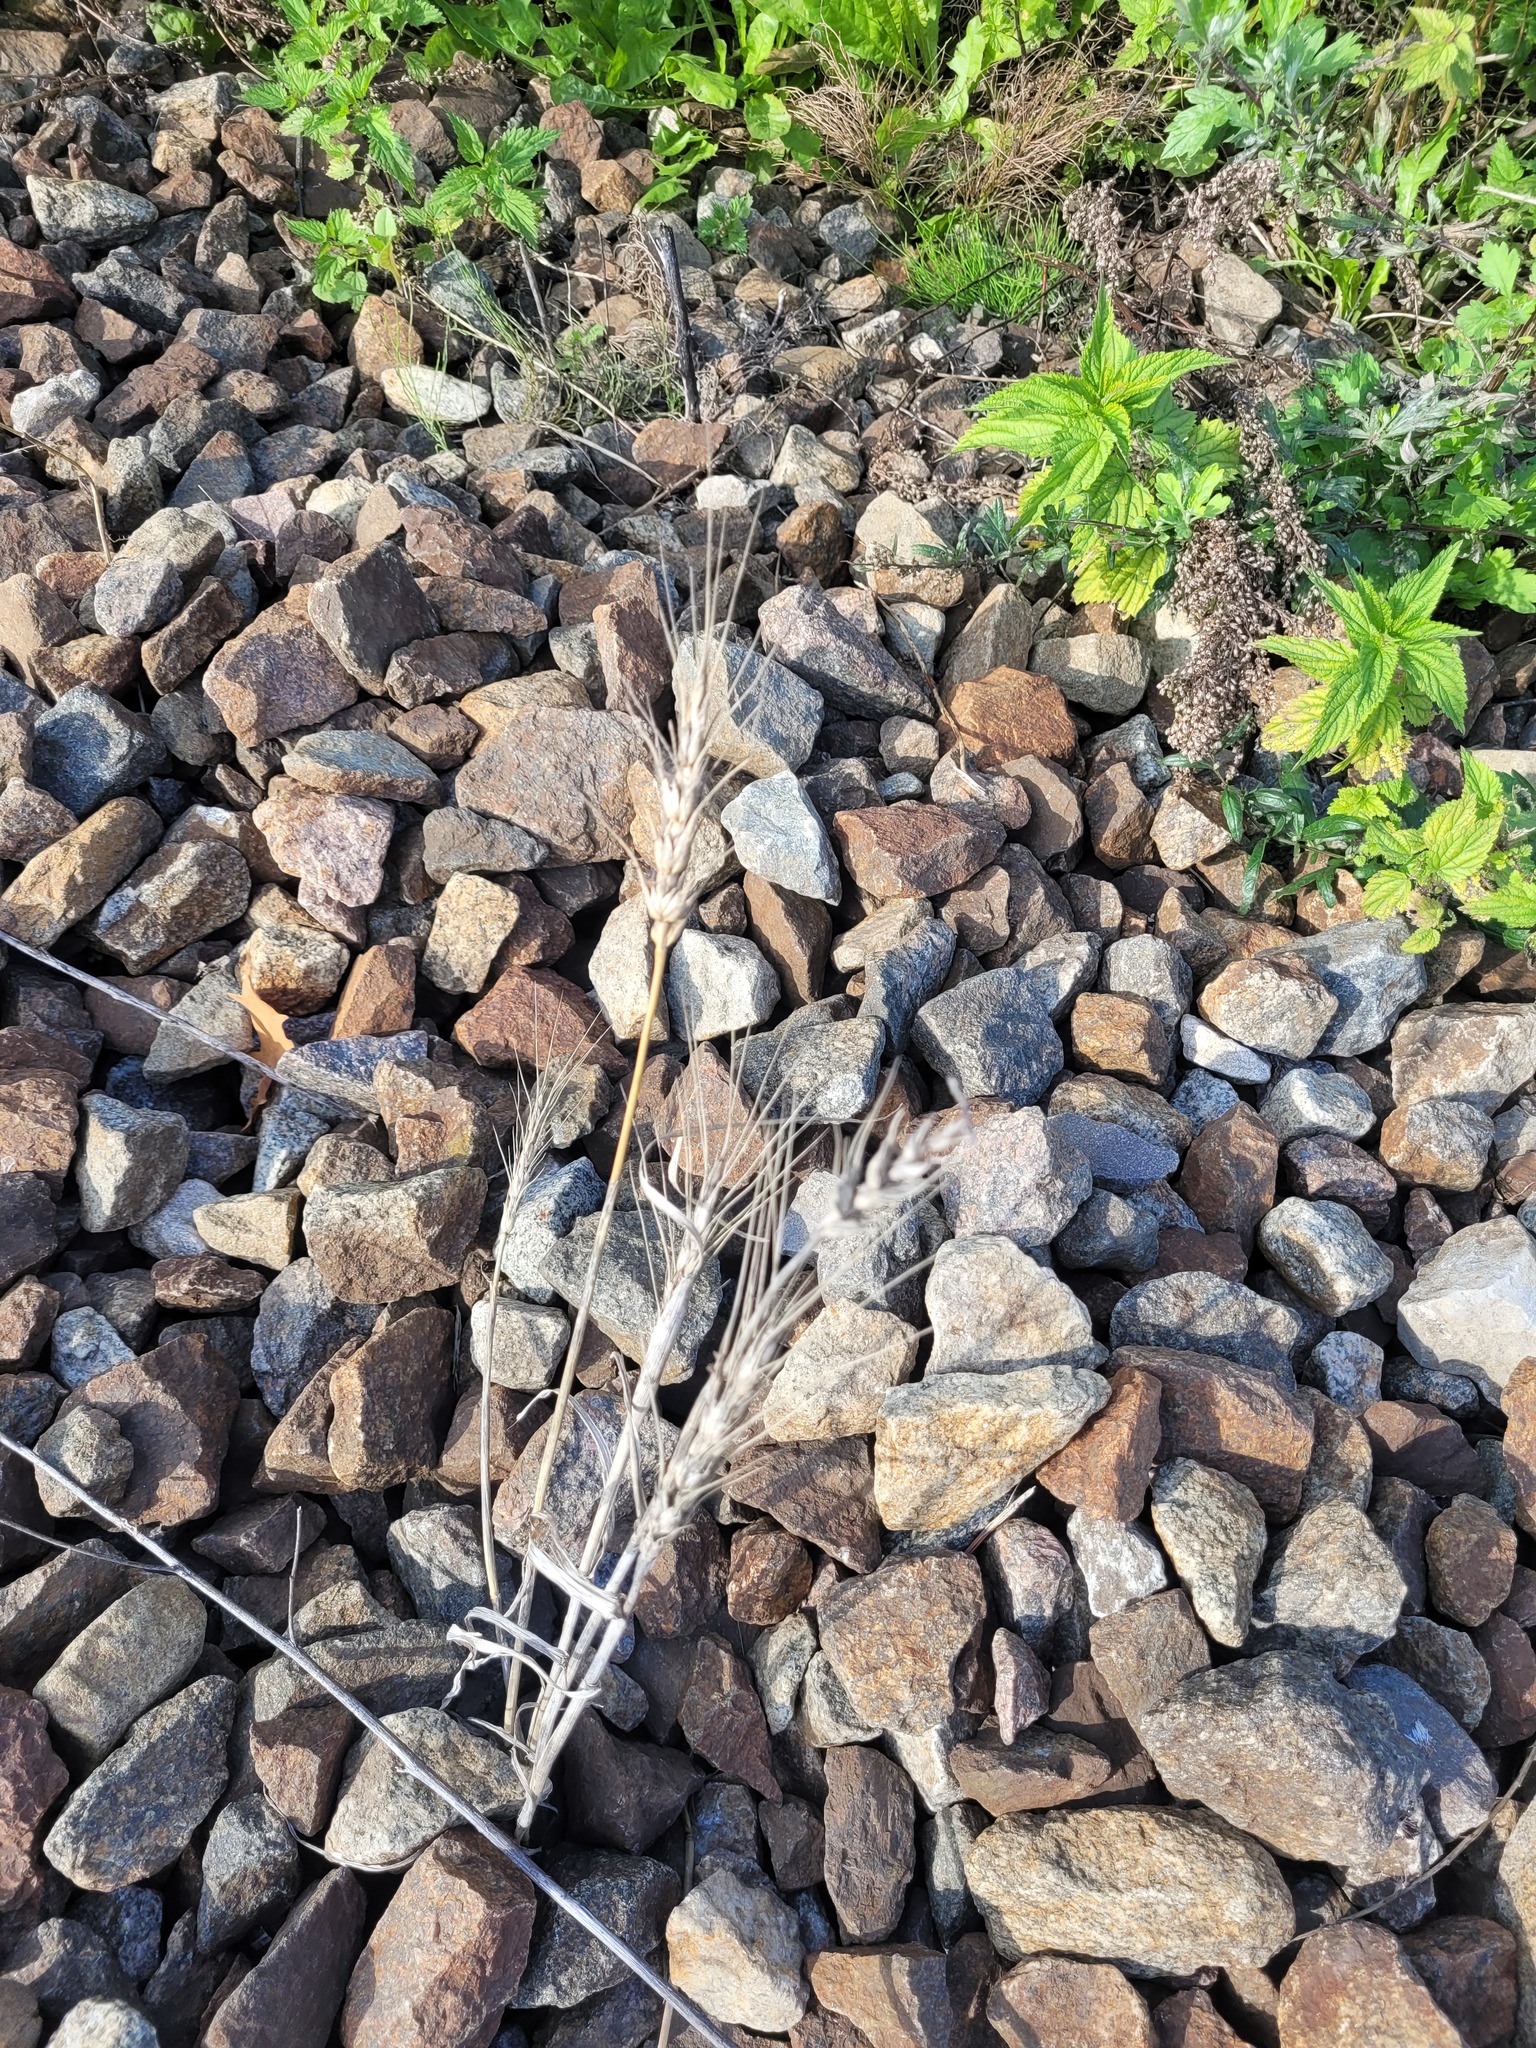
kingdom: Plantae
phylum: Tracheophyta
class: Liliopsida
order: Poales
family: Poaceae
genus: Triticum
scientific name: Triticum aestivum
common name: Common wheat
